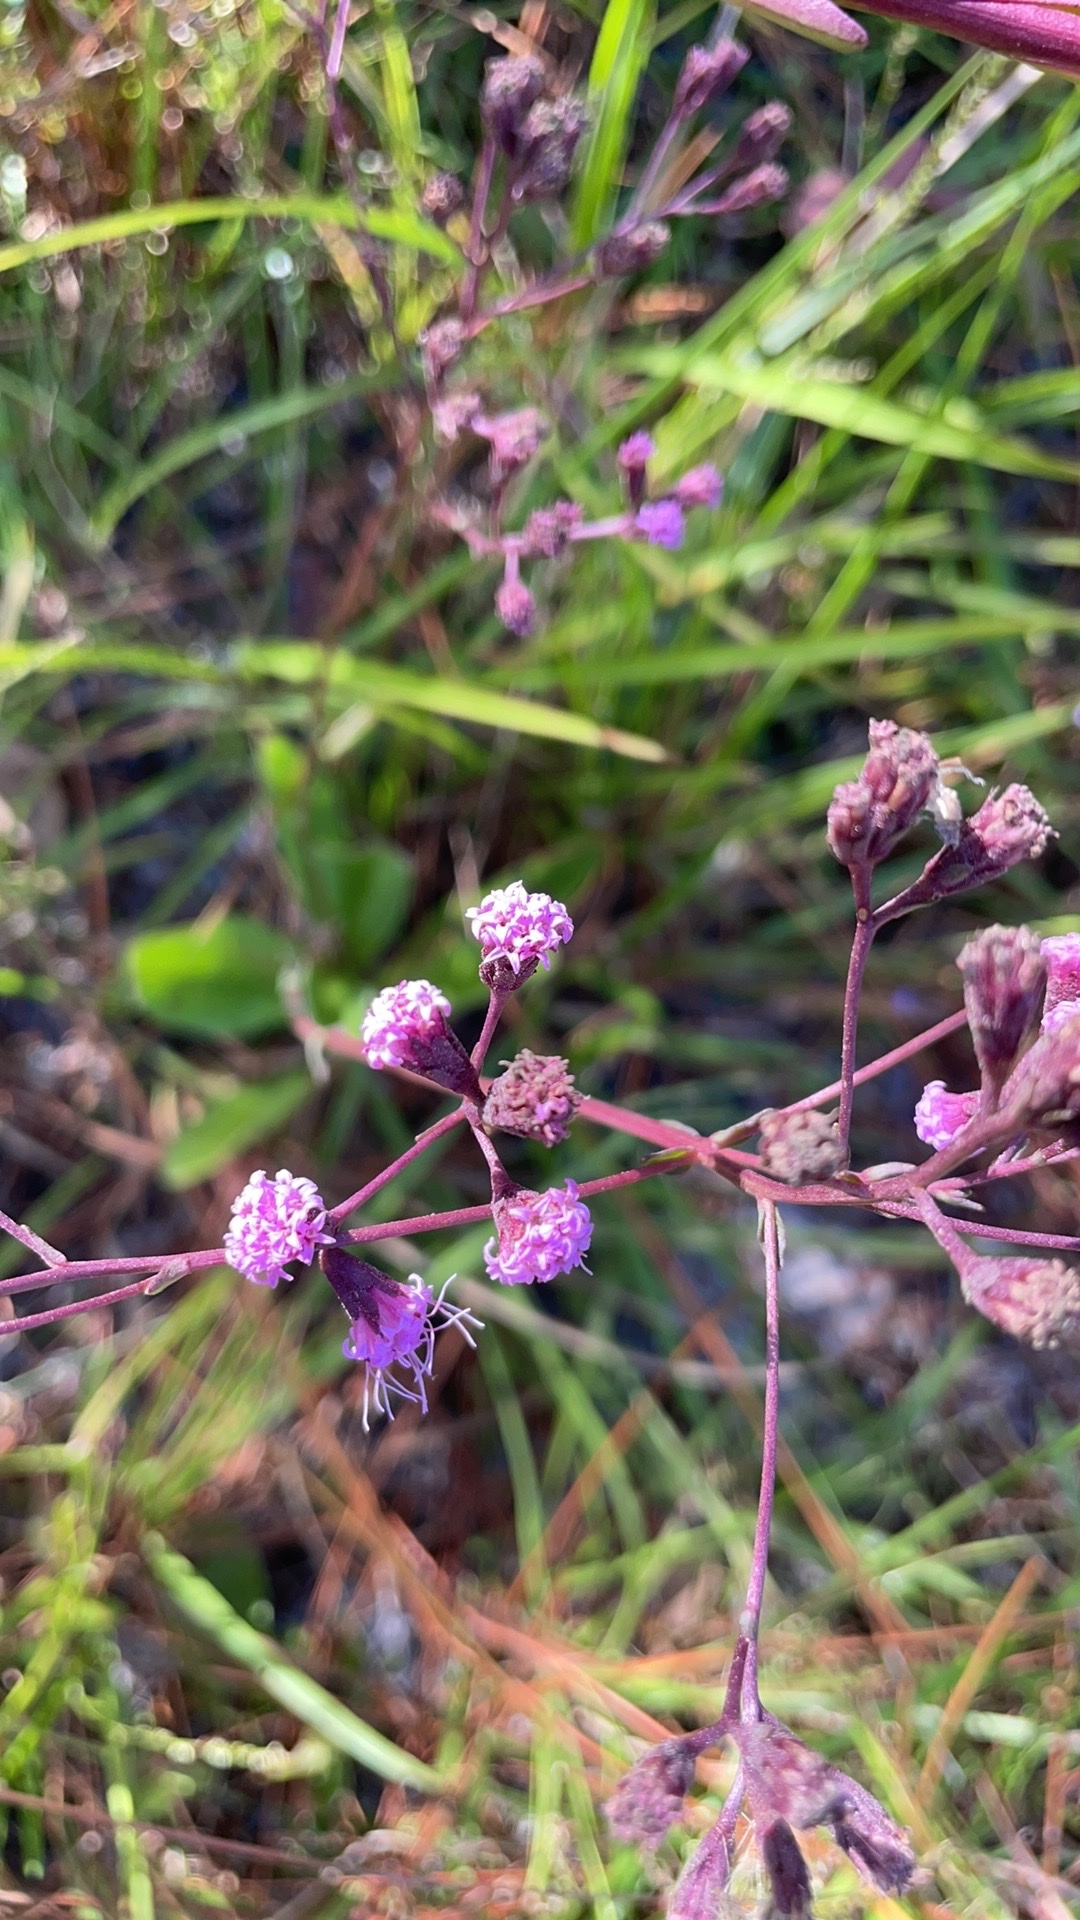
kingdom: Plantae
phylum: Tracheophyta
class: Magnoliopsida
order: Asterales
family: Asteraceae
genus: Carphephorus
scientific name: Carphephorus
